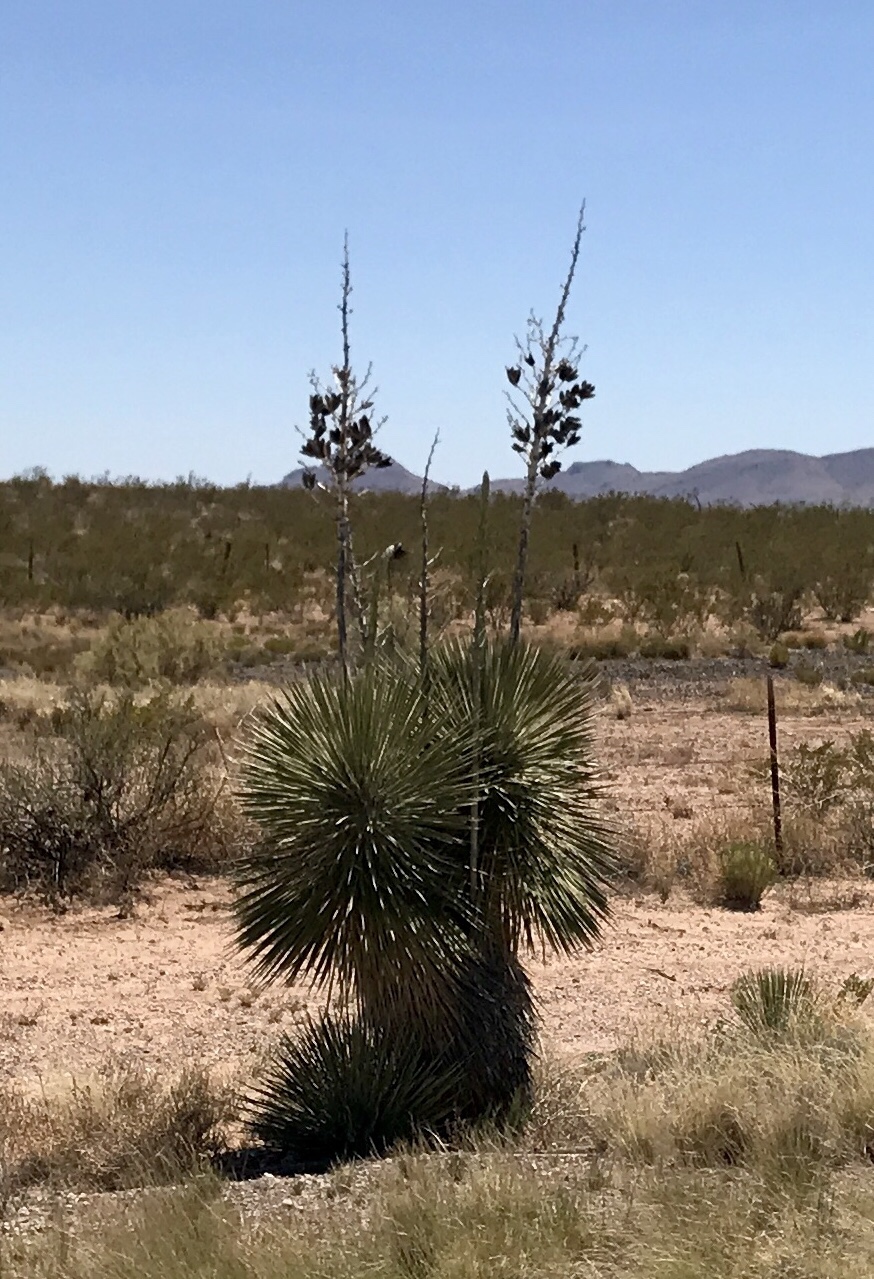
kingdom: Plantae
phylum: Tracheophyta
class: Liliopsida
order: Asparagales
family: Asparagaceae
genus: Yucca
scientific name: Yucca elata
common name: Palmella
